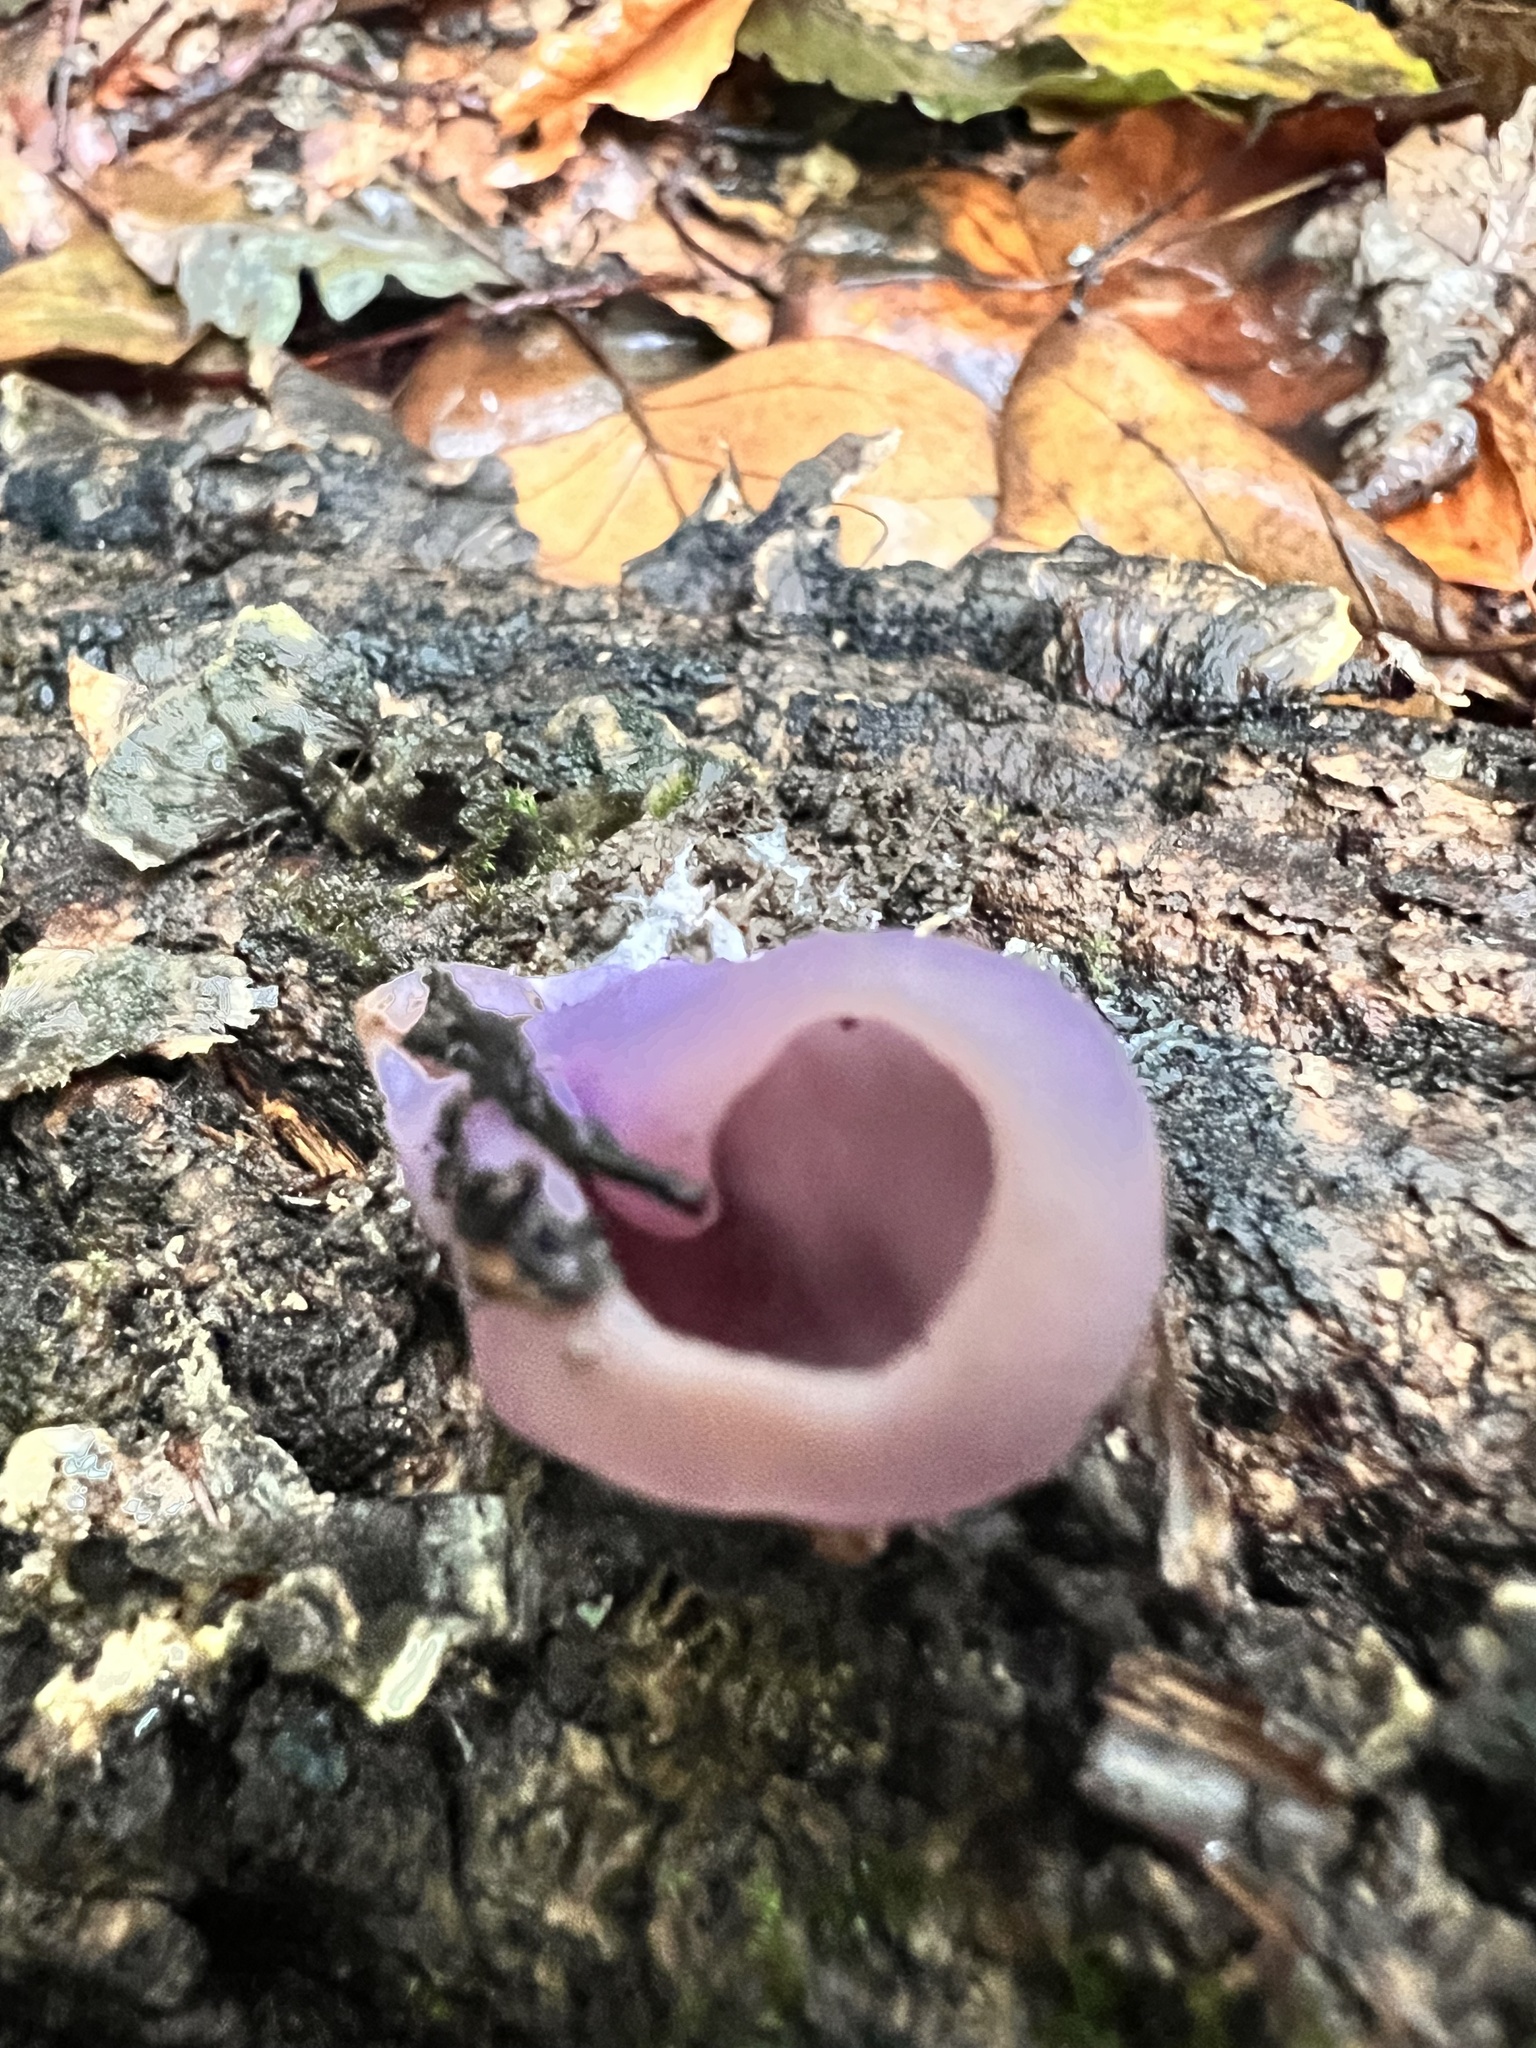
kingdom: Fungi
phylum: Ascomycota
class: Pezizomycetes
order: Pezizales
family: Pezizaceae
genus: Geoscypha
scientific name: Geoscypha violacea
